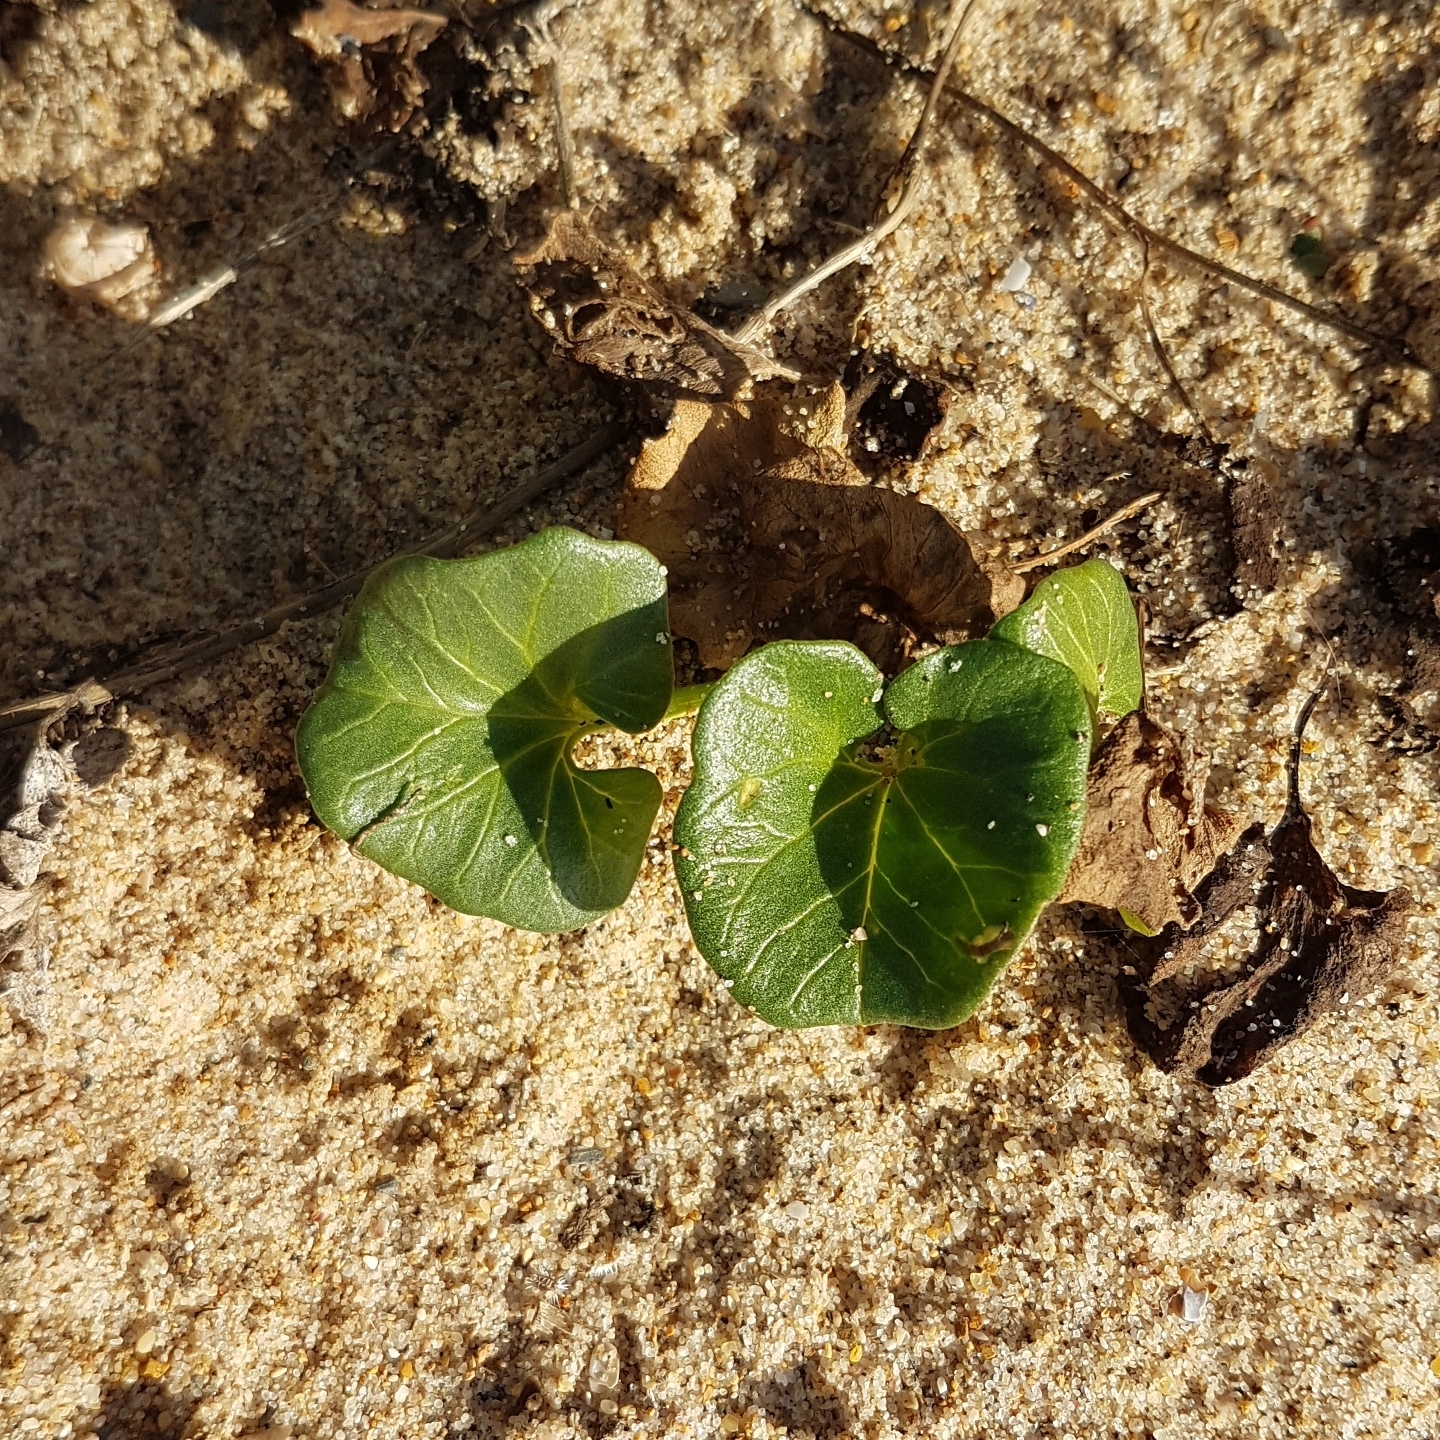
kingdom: Plantae
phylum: Tracheophyta
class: Magnoliopsida
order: Solanales
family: Convolvulaceae
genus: Calystegia
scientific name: Calystegia soldanella
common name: Sea bindweed
